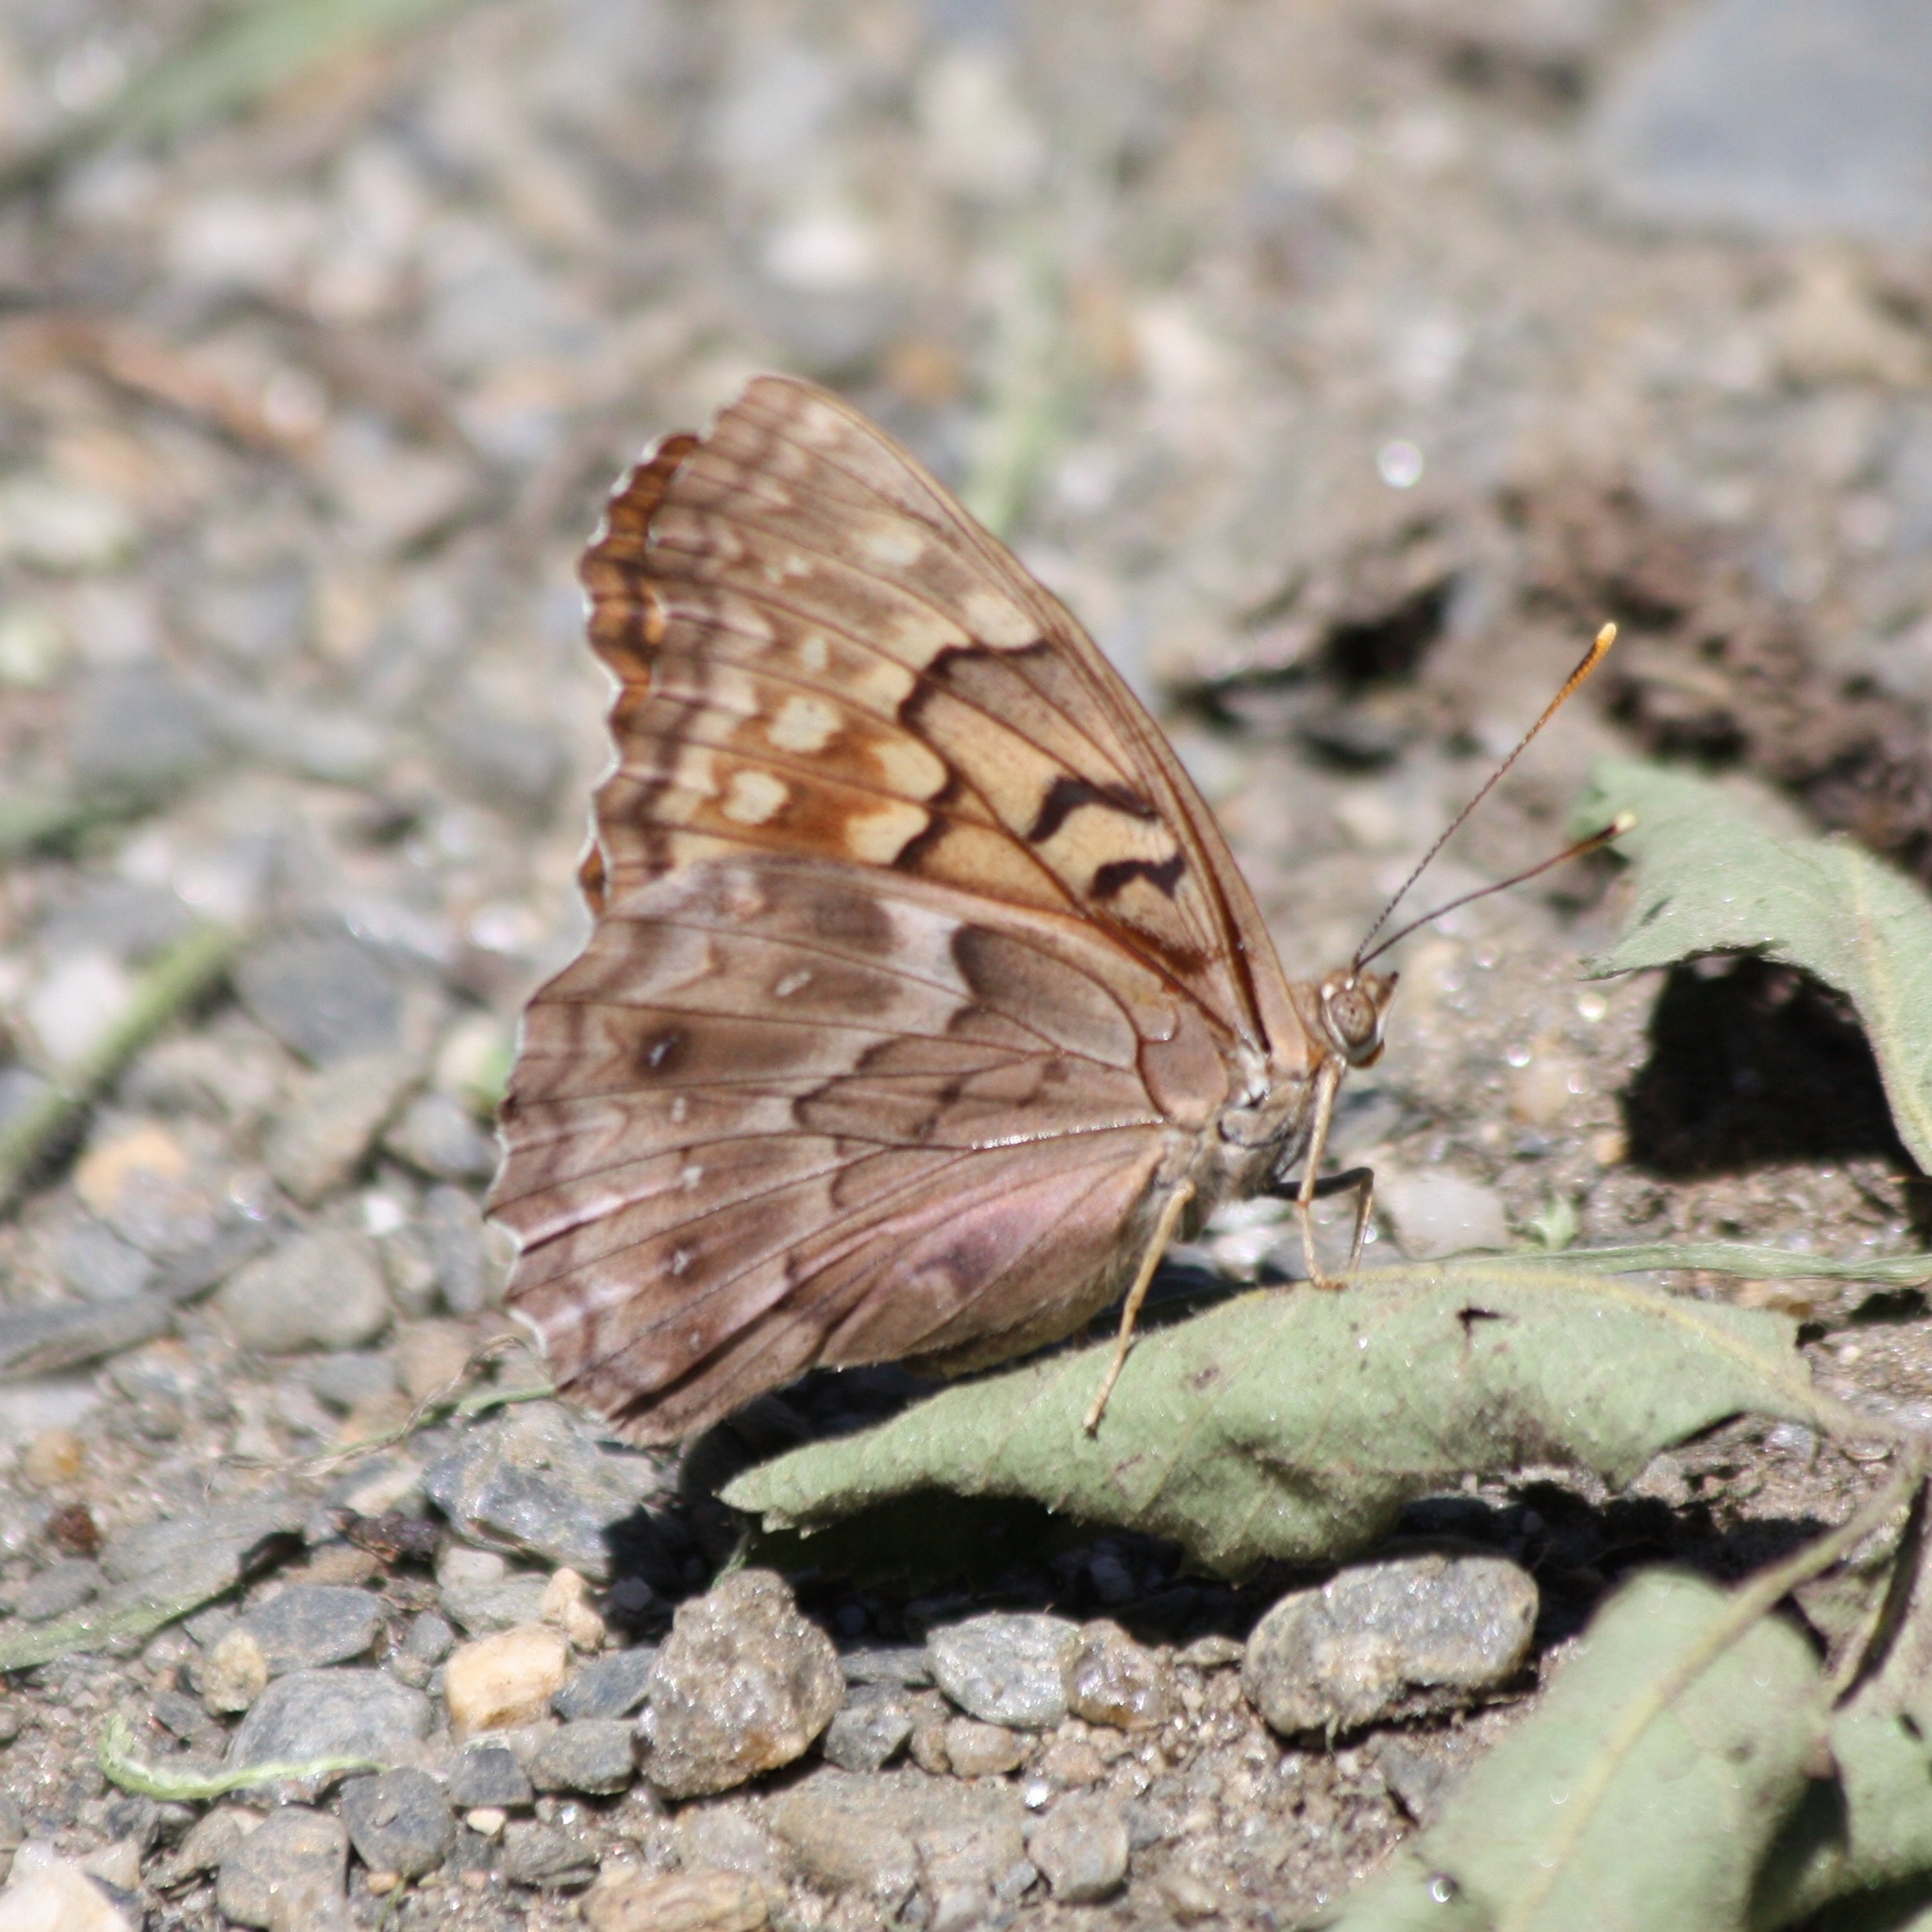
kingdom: Animalia
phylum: Arthropoda
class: Insecta
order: Lepidoptera
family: Nymphalidae
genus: Asterocampa
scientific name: Asterocampa clyton
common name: Tawny emperor
